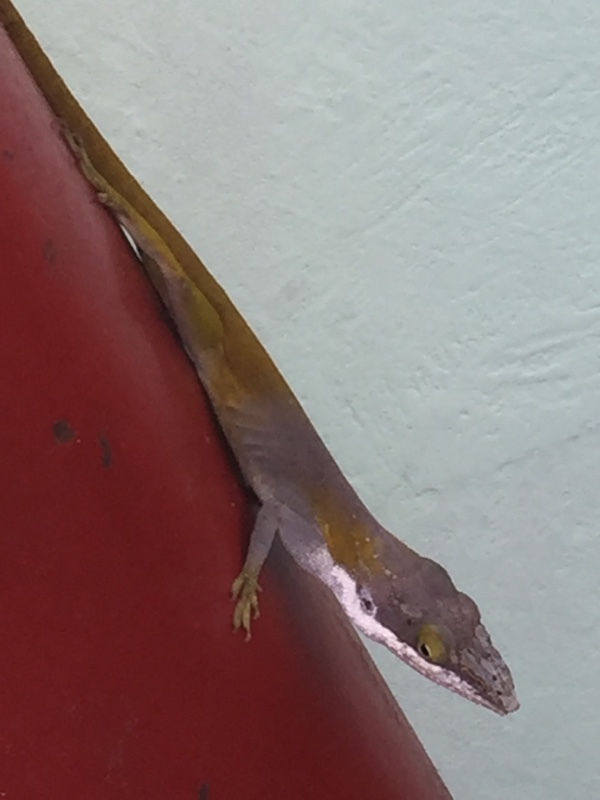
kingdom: Animalia
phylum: Chordata
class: Squamata
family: Dactyloidae
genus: Anolis
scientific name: Anolis allisoni
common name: Allison's anole
